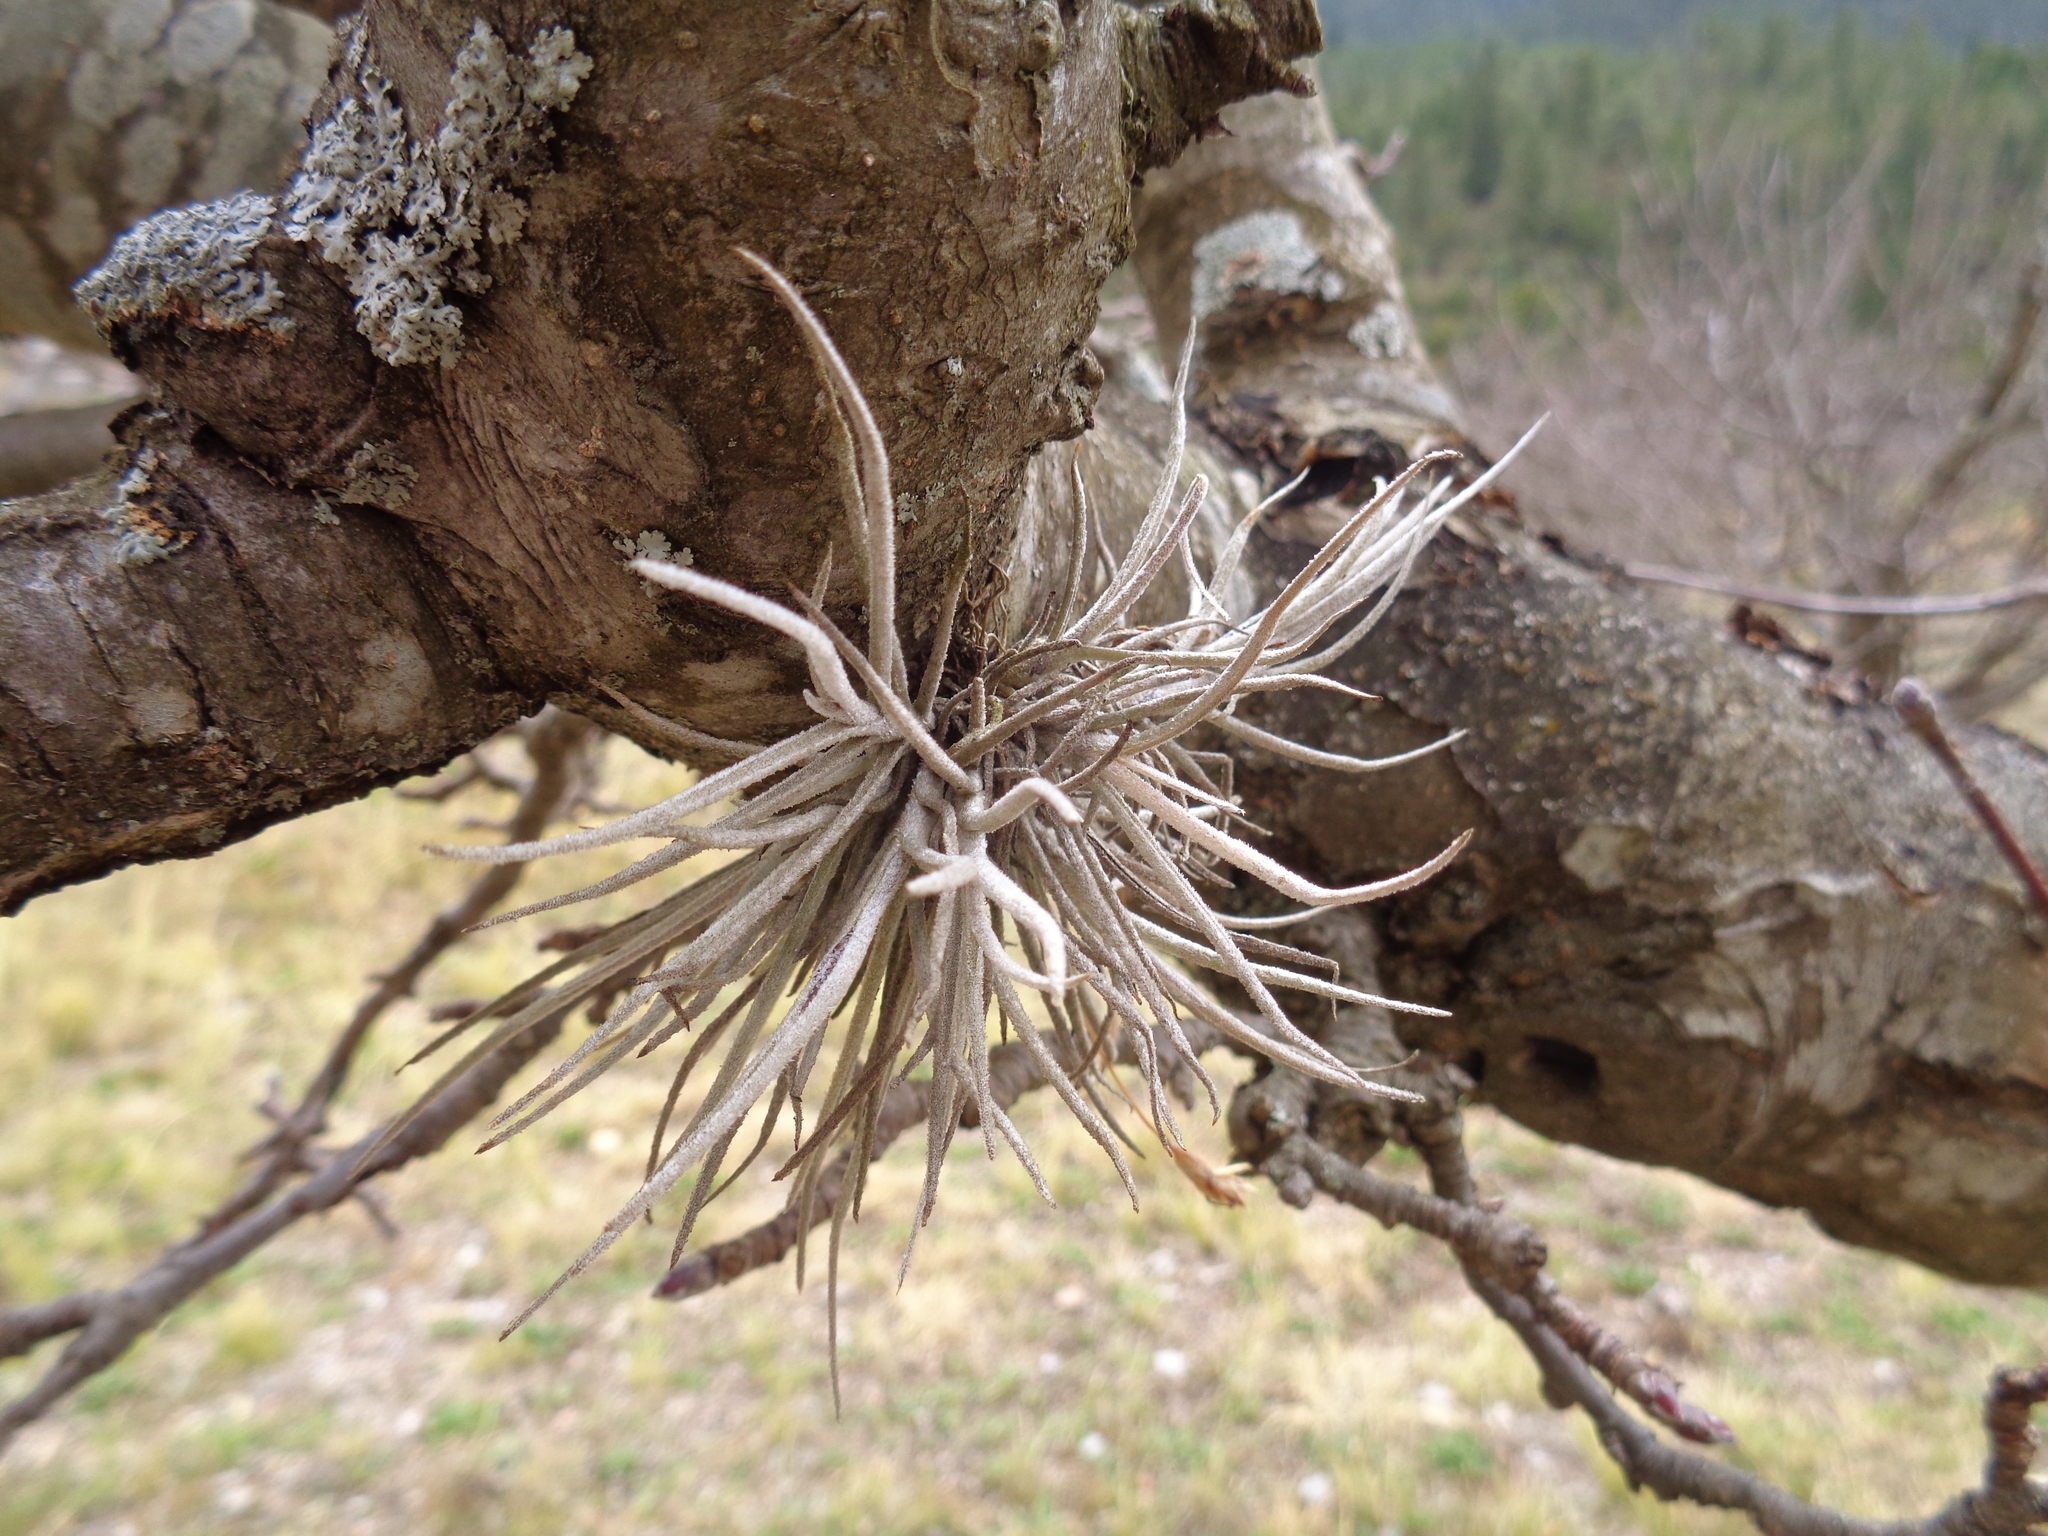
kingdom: Plantae
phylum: Tracheophyta
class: Liliopsida
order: Poales
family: Bromeliaceae
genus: Tillandsia
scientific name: Tillandsia recurvata
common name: Small ballmoss
